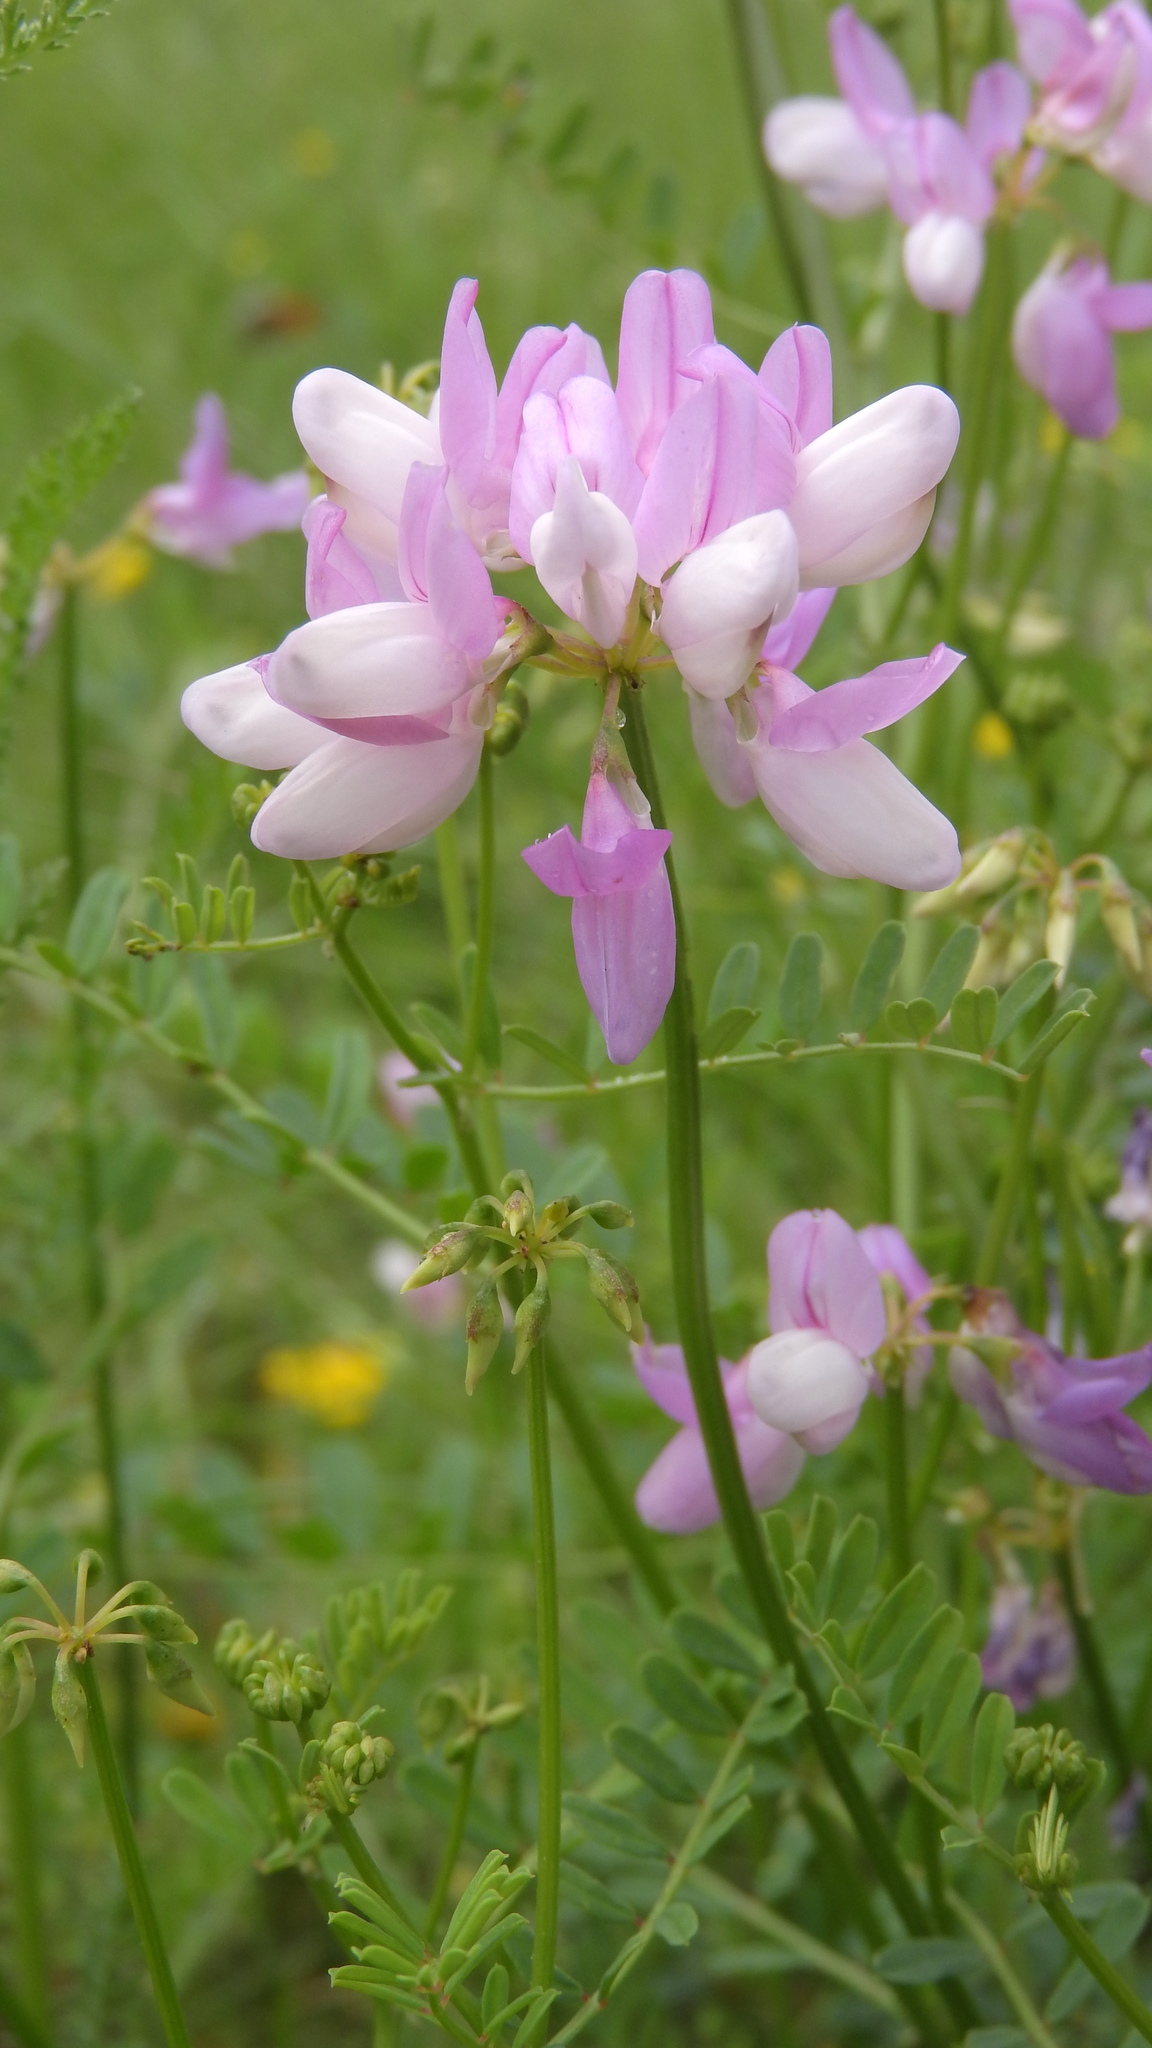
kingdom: Plantae
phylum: Tracheophyta
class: Magnoliopsida
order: Fabales
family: Fabaceae
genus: Coronilla
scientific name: Coronilla varia
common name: Crownvetch
